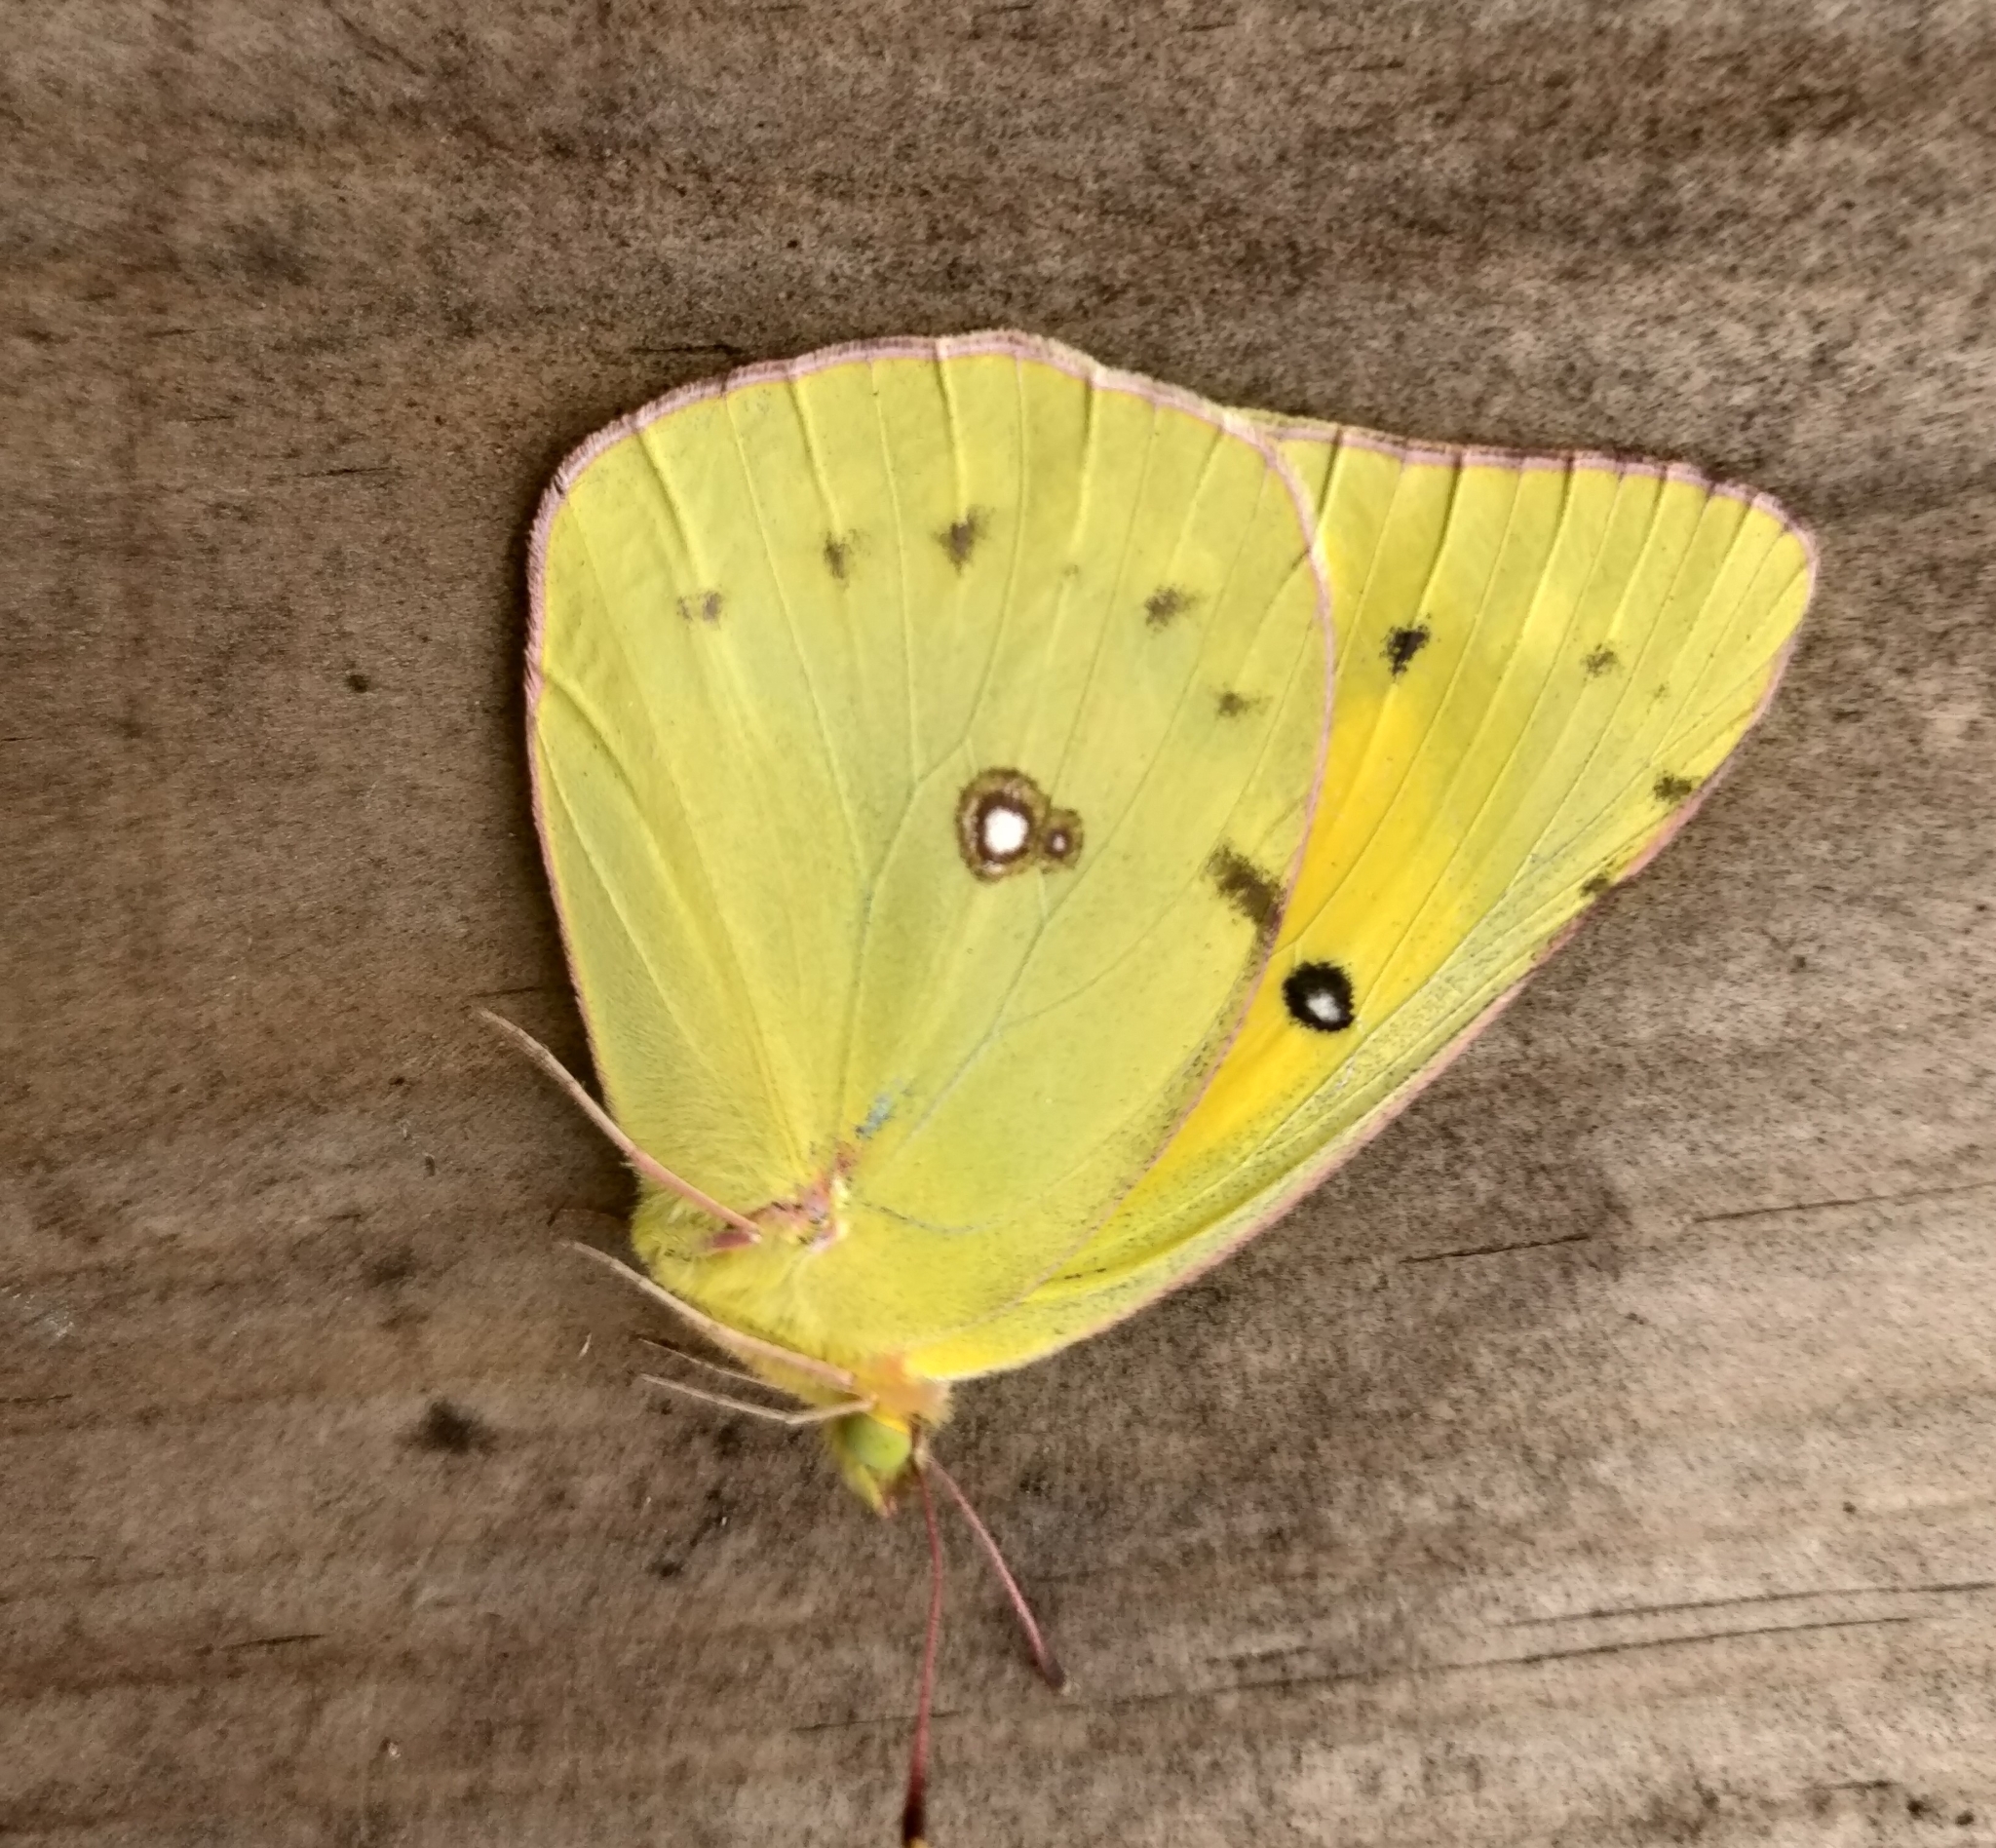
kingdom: Animalia
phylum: Arthropoda
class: Insecta
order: Lepidoptera
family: Pieridae
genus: Colias
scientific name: Colias eurytheme
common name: Alfalfa butterfly
